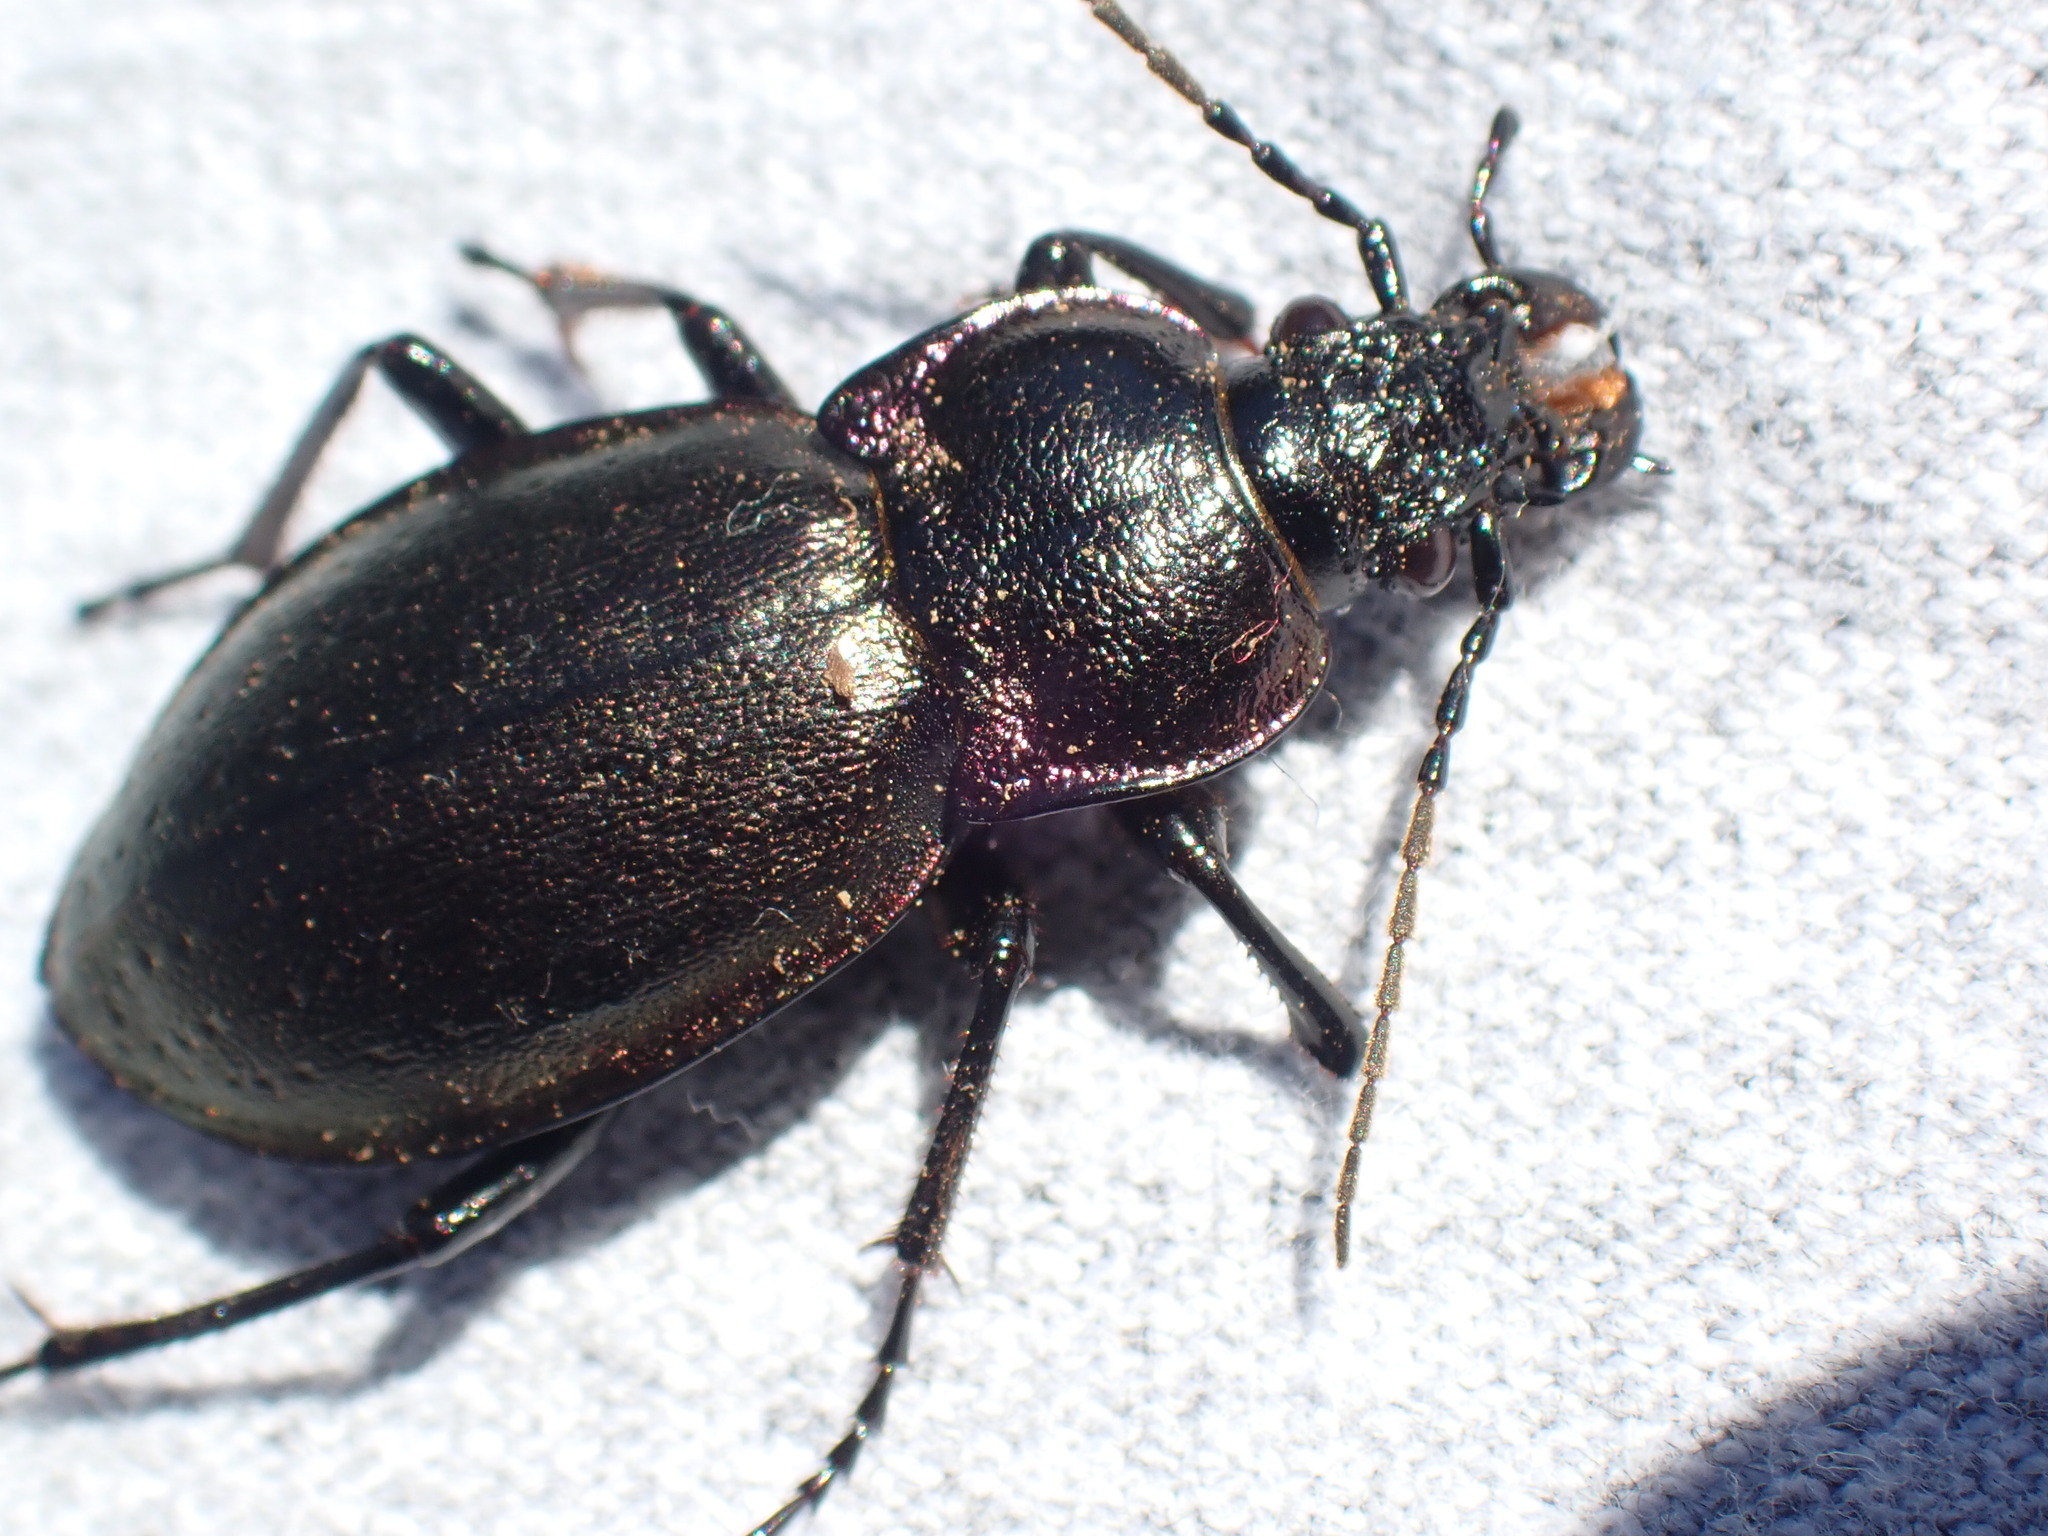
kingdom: Animalia
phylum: Arthropoda
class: Insecta
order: Coleoptera
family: Carabidae
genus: Carabus
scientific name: Carabus nemoralis
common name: European ground beetle
